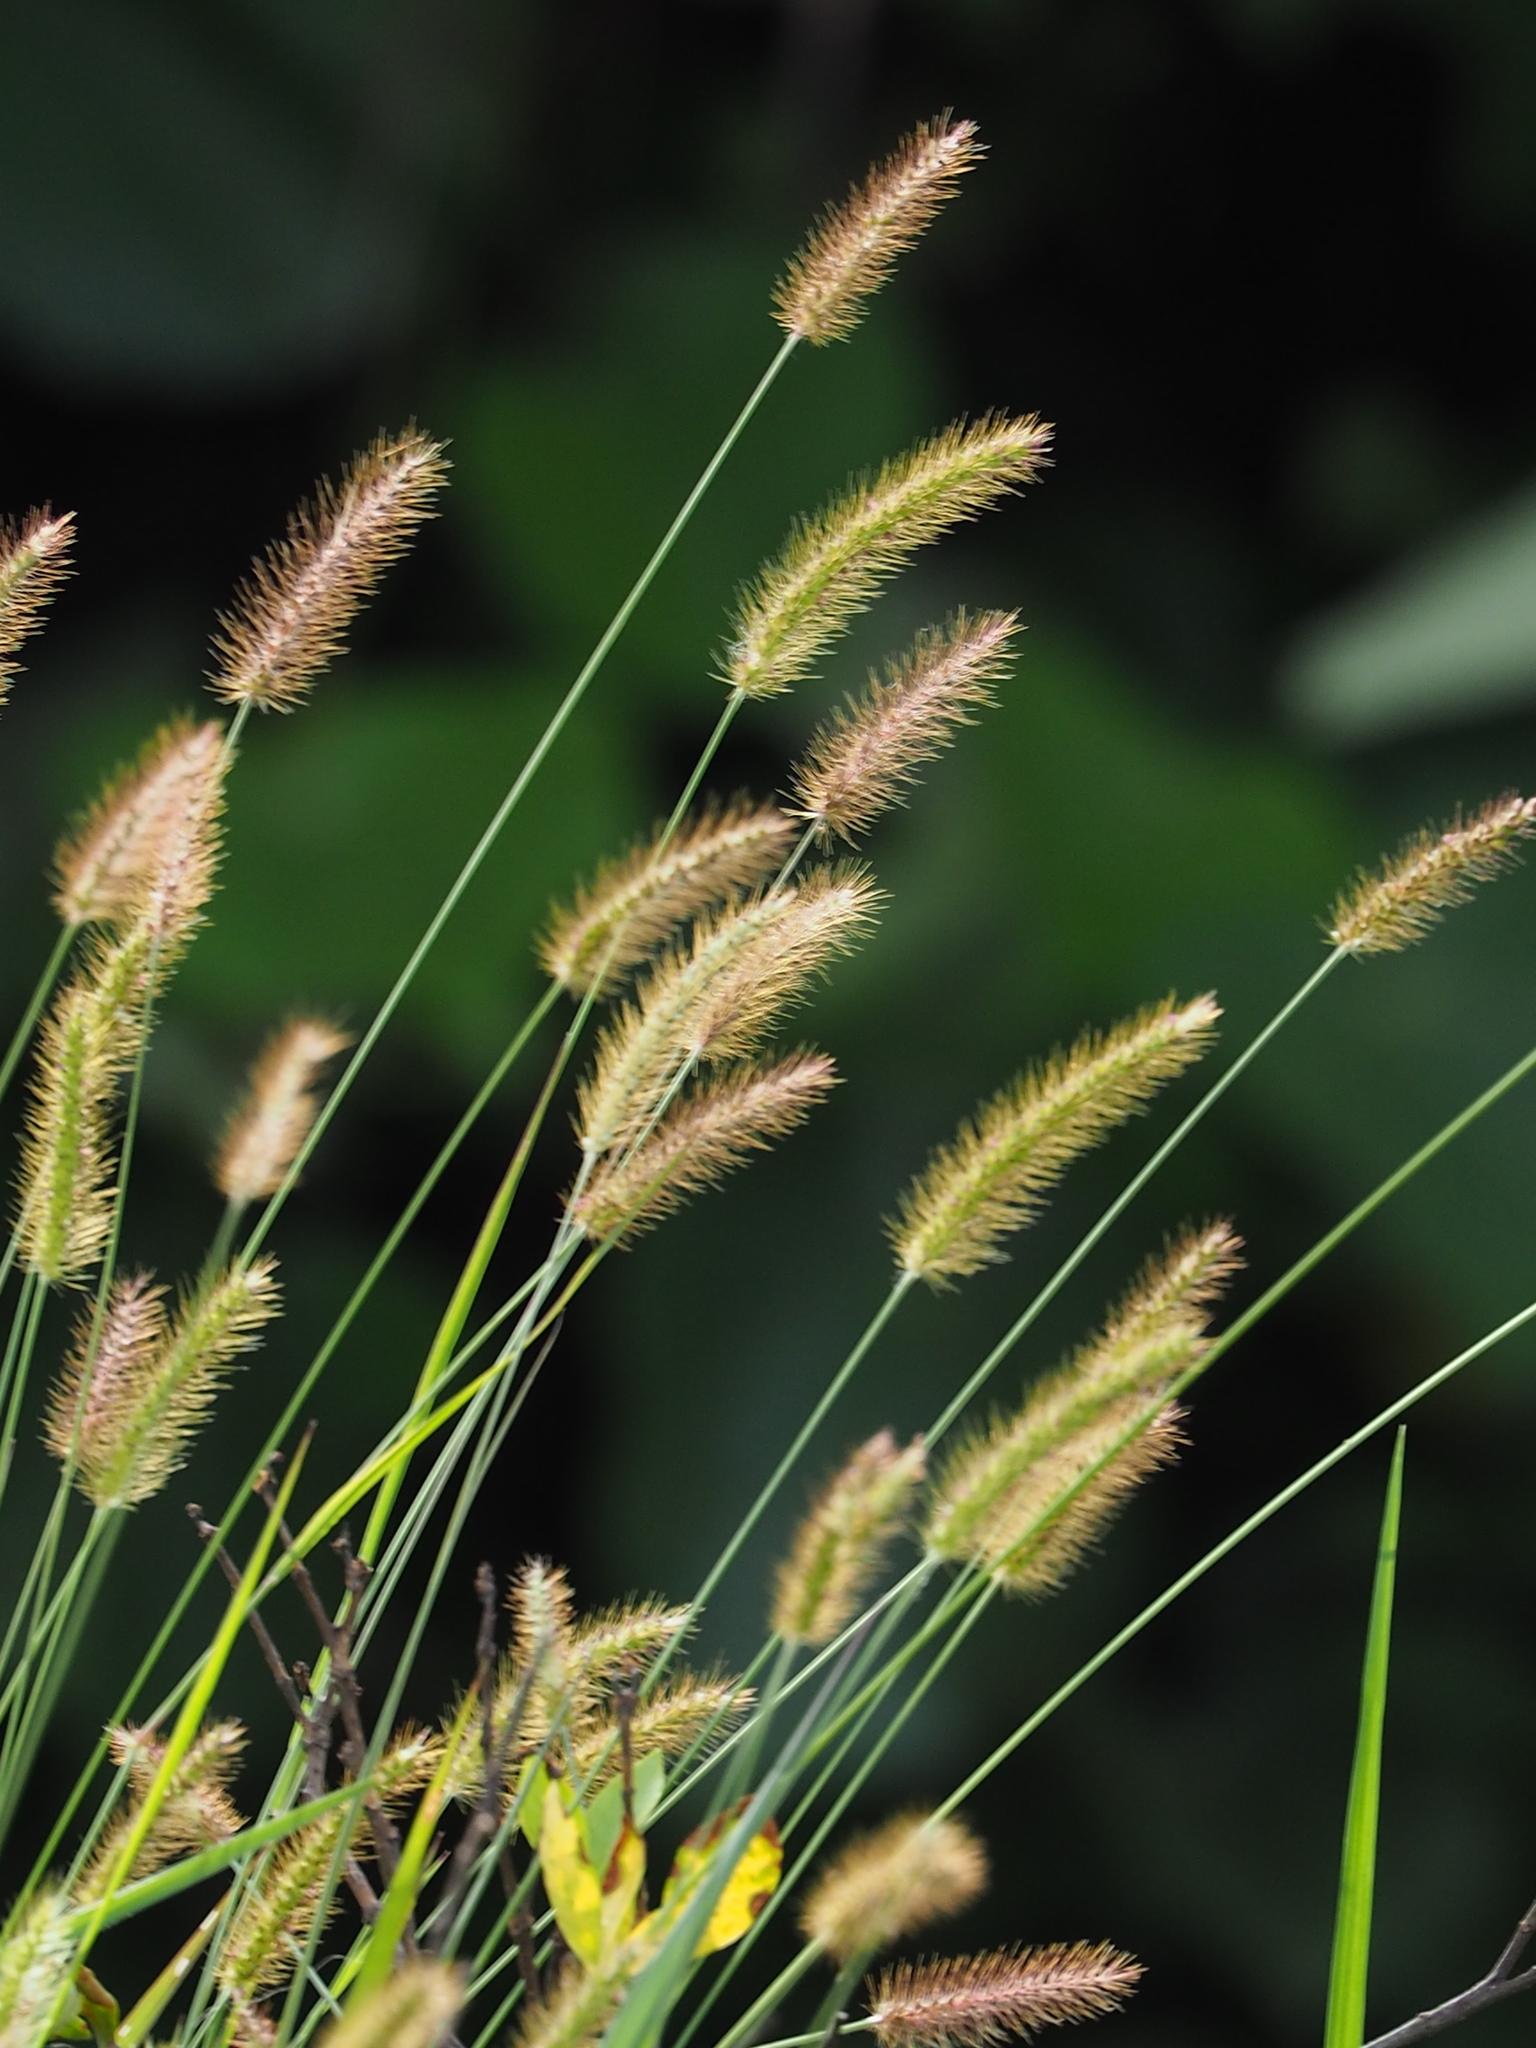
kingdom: Plantae
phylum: Tracheophyta
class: Liliopsida
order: Poales
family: Poaceae
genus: Setaria
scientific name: Setaria parviflora
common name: Knotroot bristle-grass
